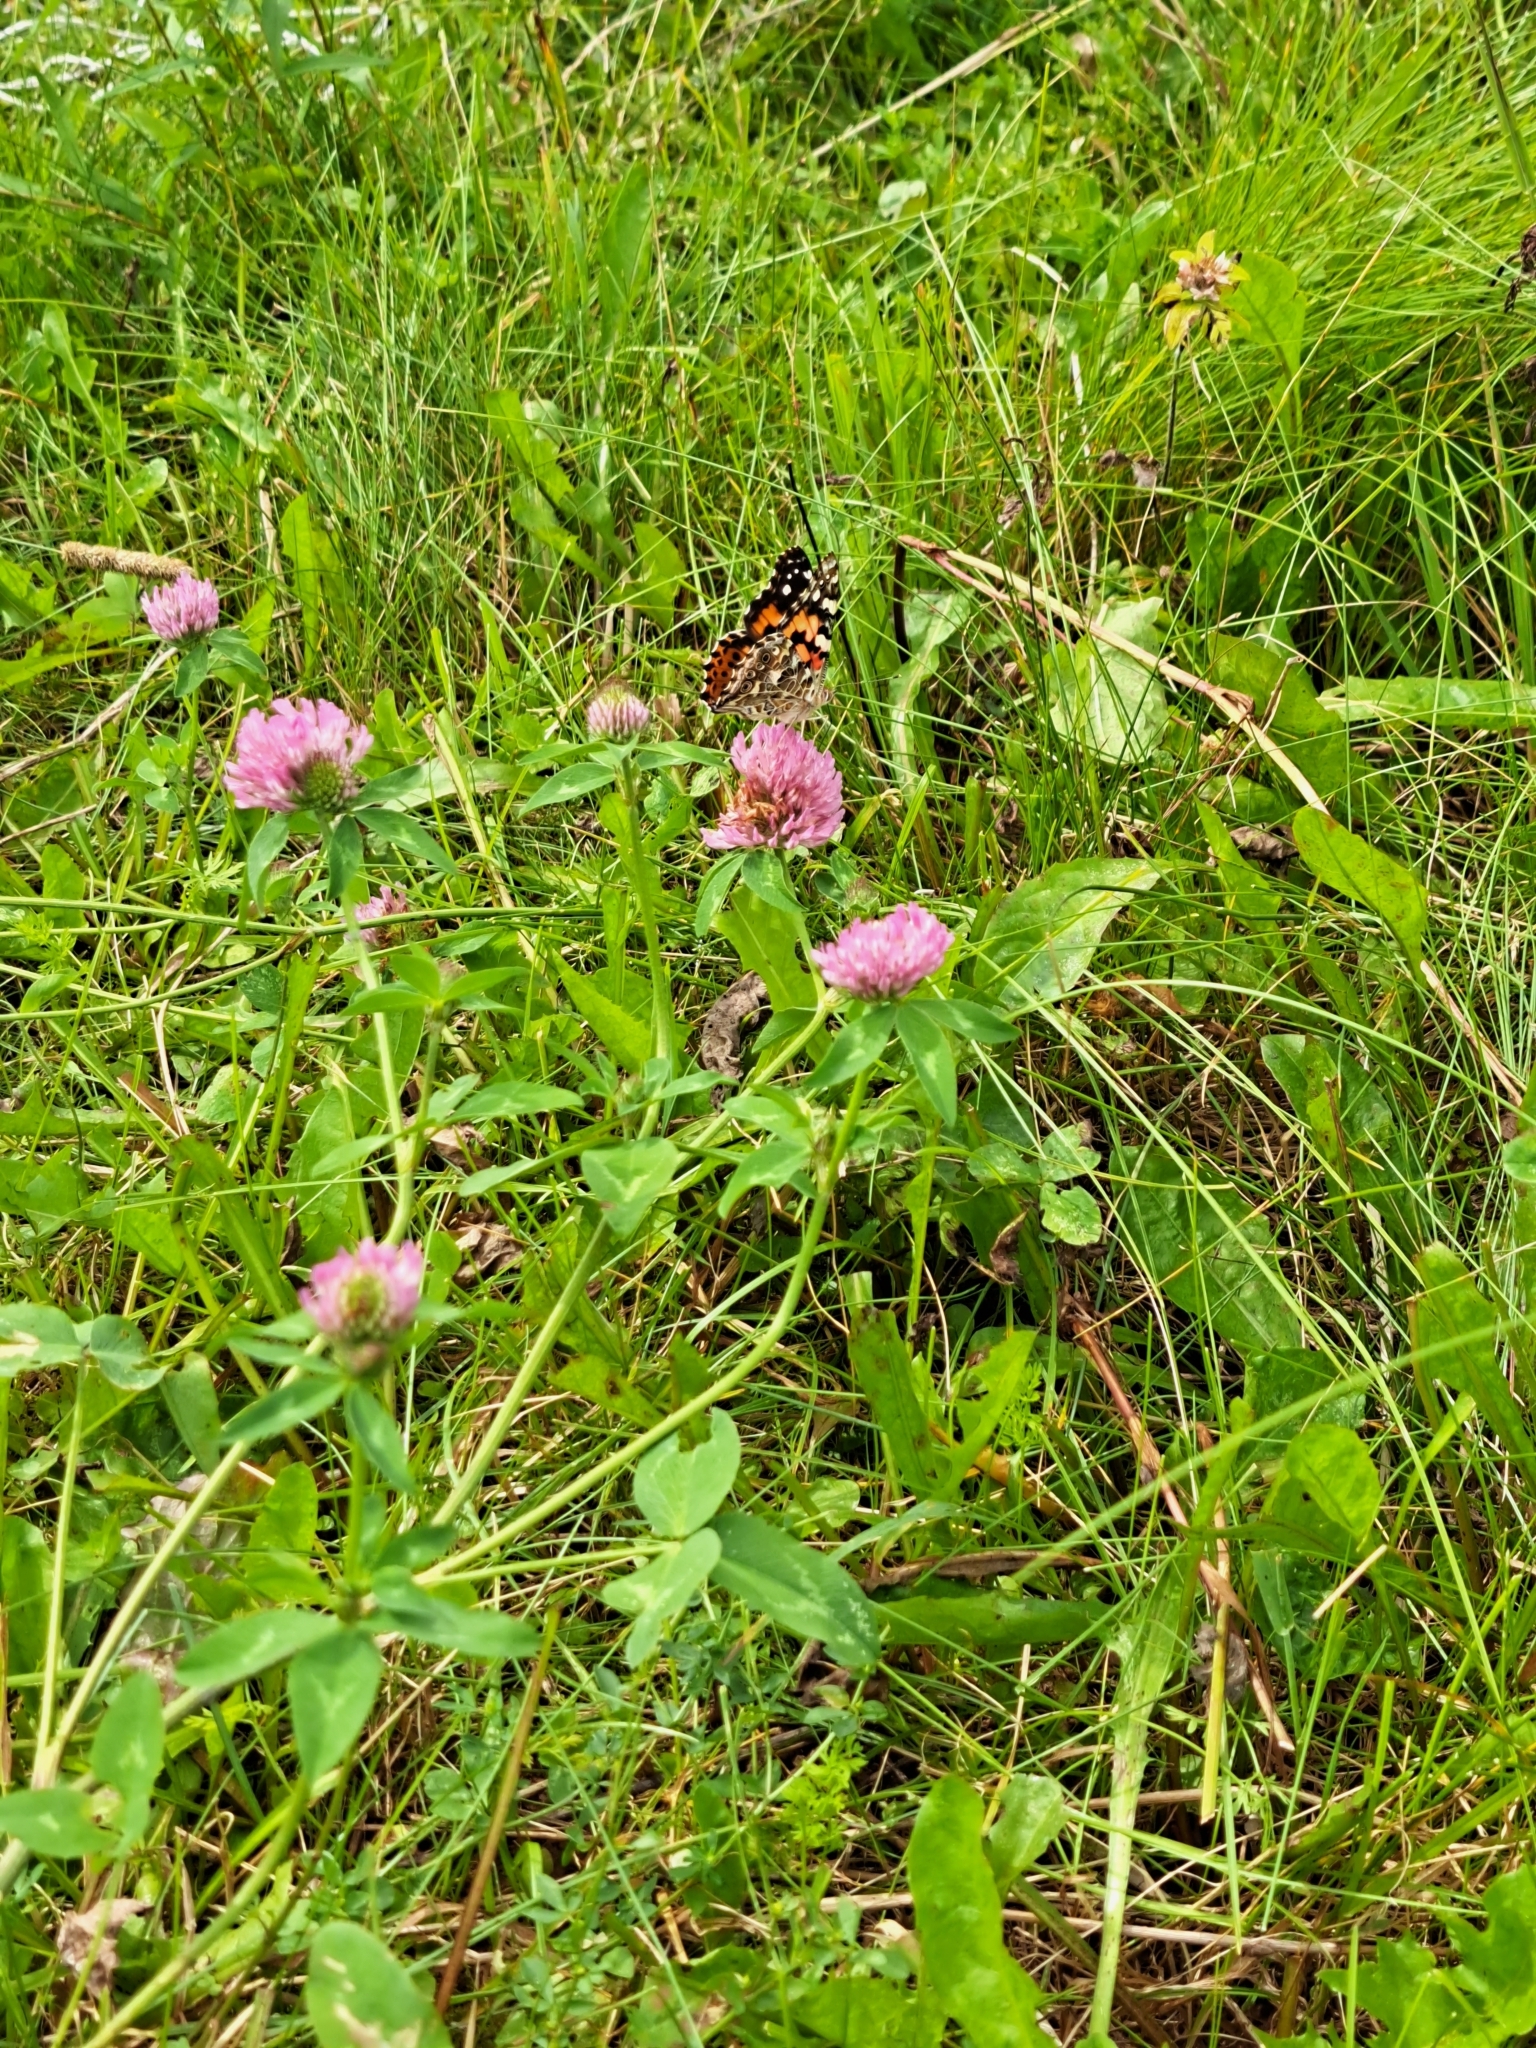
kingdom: Animalia
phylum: Arthropoda
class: Insecta
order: Lepidoptera
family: Nymphalidae
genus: Vanessa
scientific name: Vanessa cardui
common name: Painted lady
